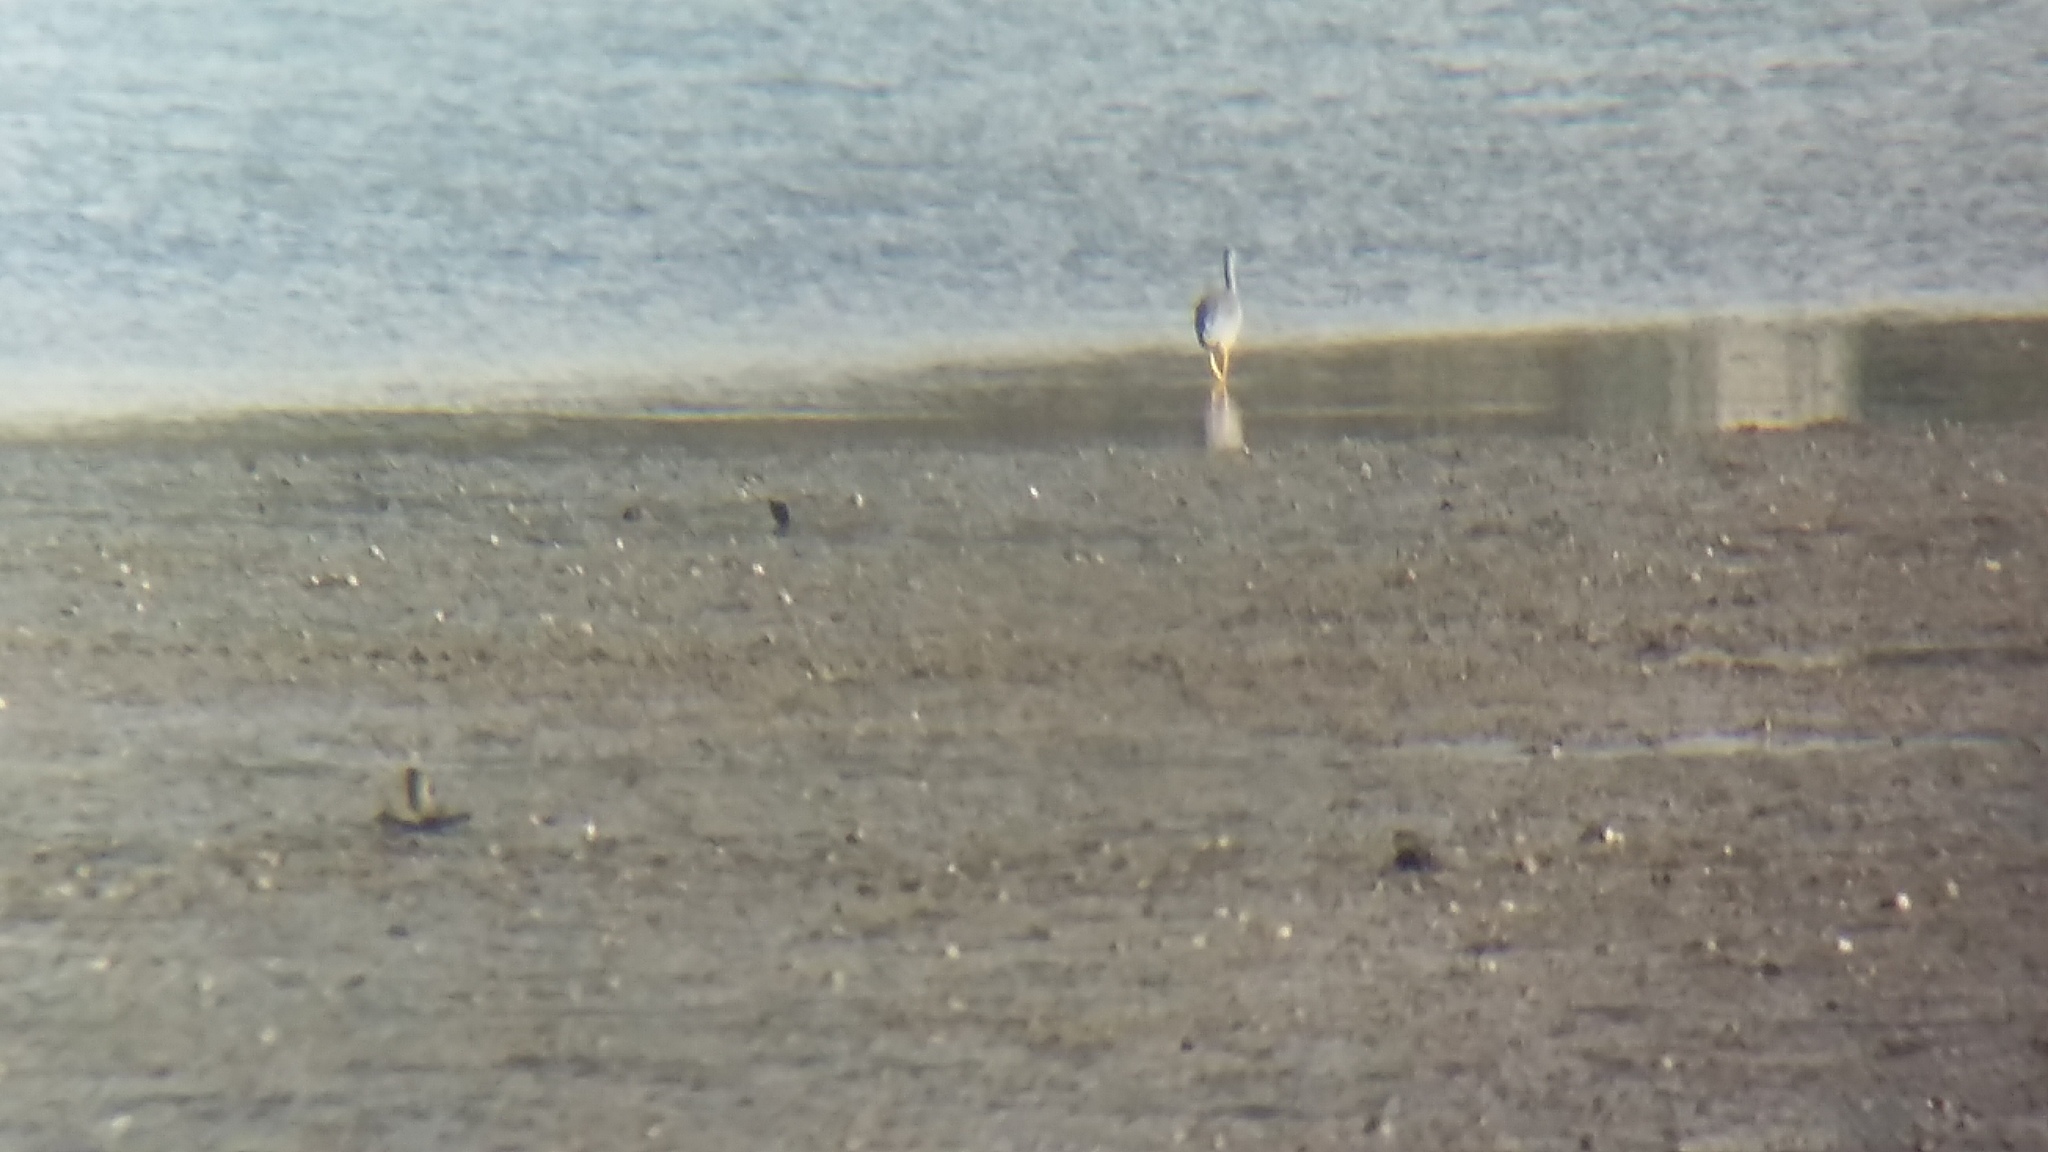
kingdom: Animalia
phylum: Chordata
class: Aves
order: Pelecaniformes
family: Ardeidae
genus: Egretta
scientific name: Egretta novaehollandiae
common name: White-faced heron
